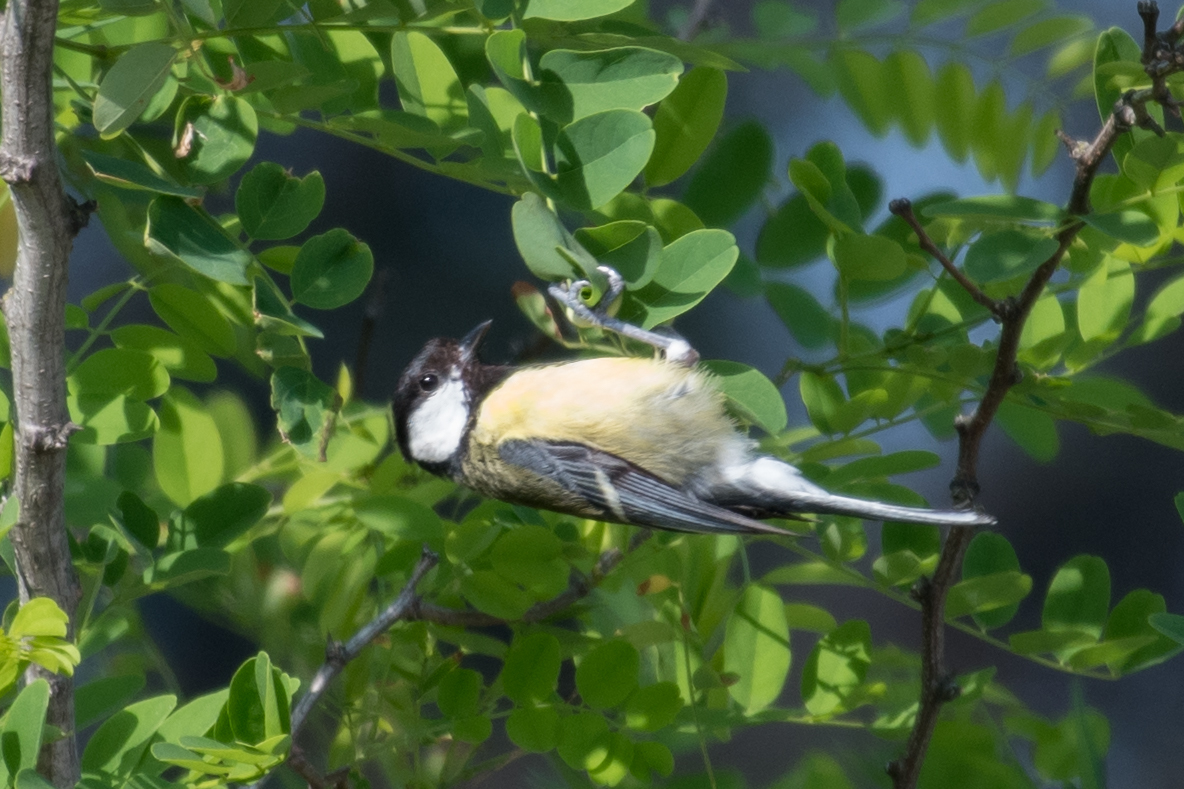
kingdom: Animalia
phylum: Chordata
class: Aves
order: Passeriformes
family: Paridae
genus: Parus
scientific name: Parus major
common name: Great tit
